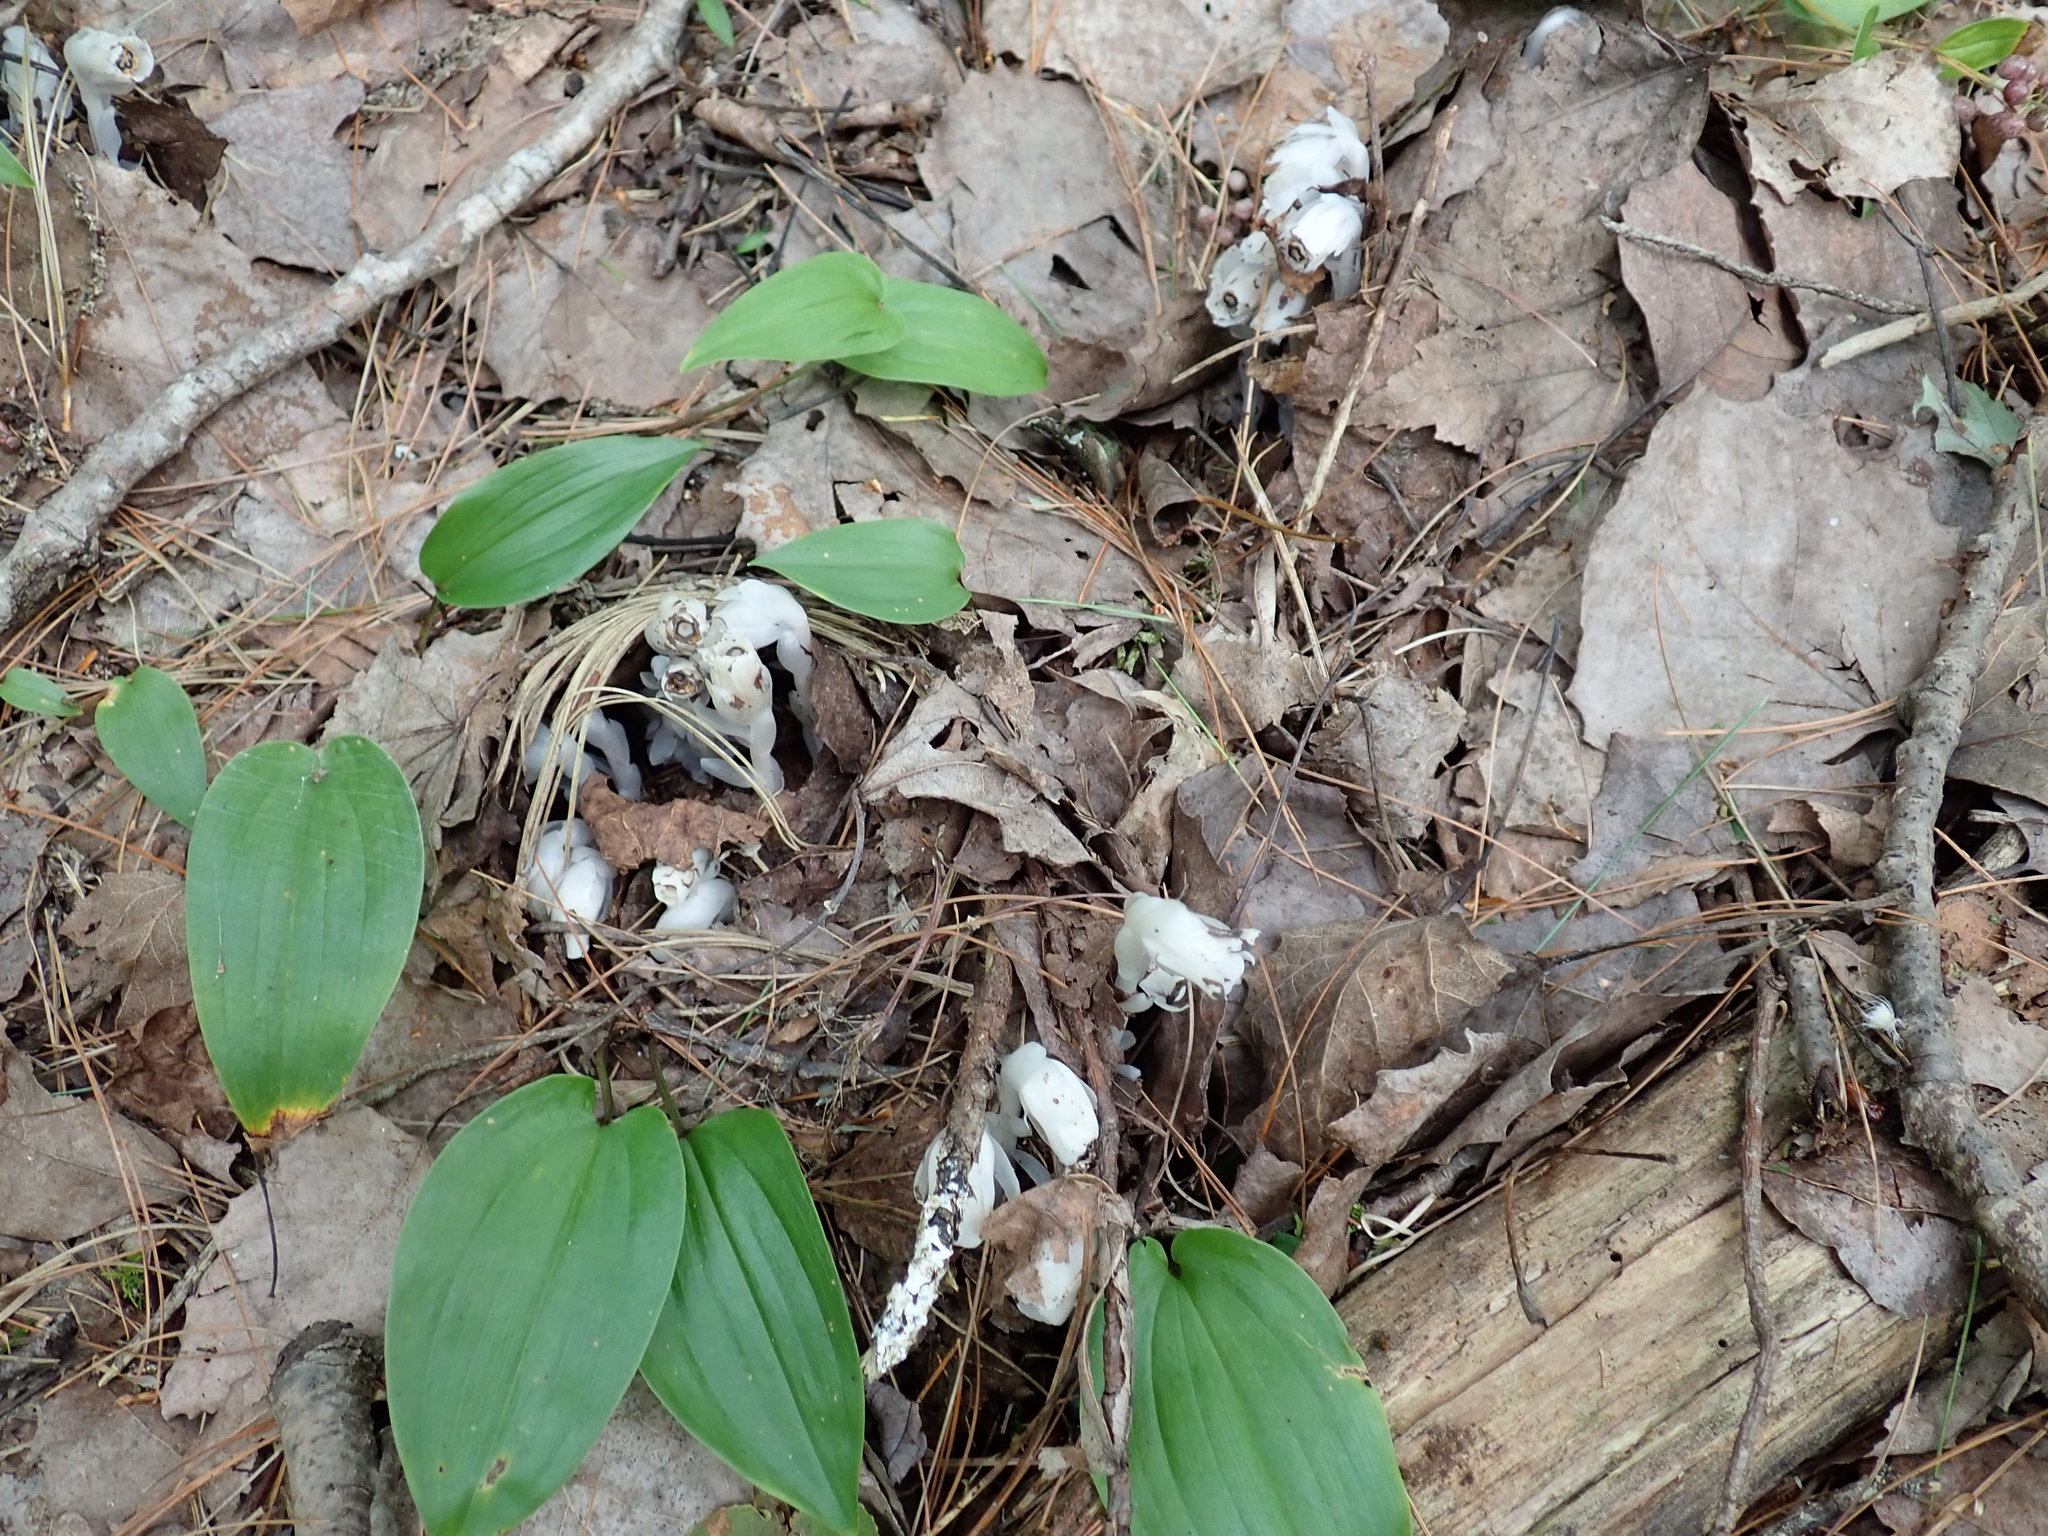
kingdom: Plantae
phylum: Tracheophyta
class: Magnoliopsida
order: Ericales
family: Ericaceae
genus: Monotropa
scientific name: Monotropa uniflora
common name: Convulsion root
